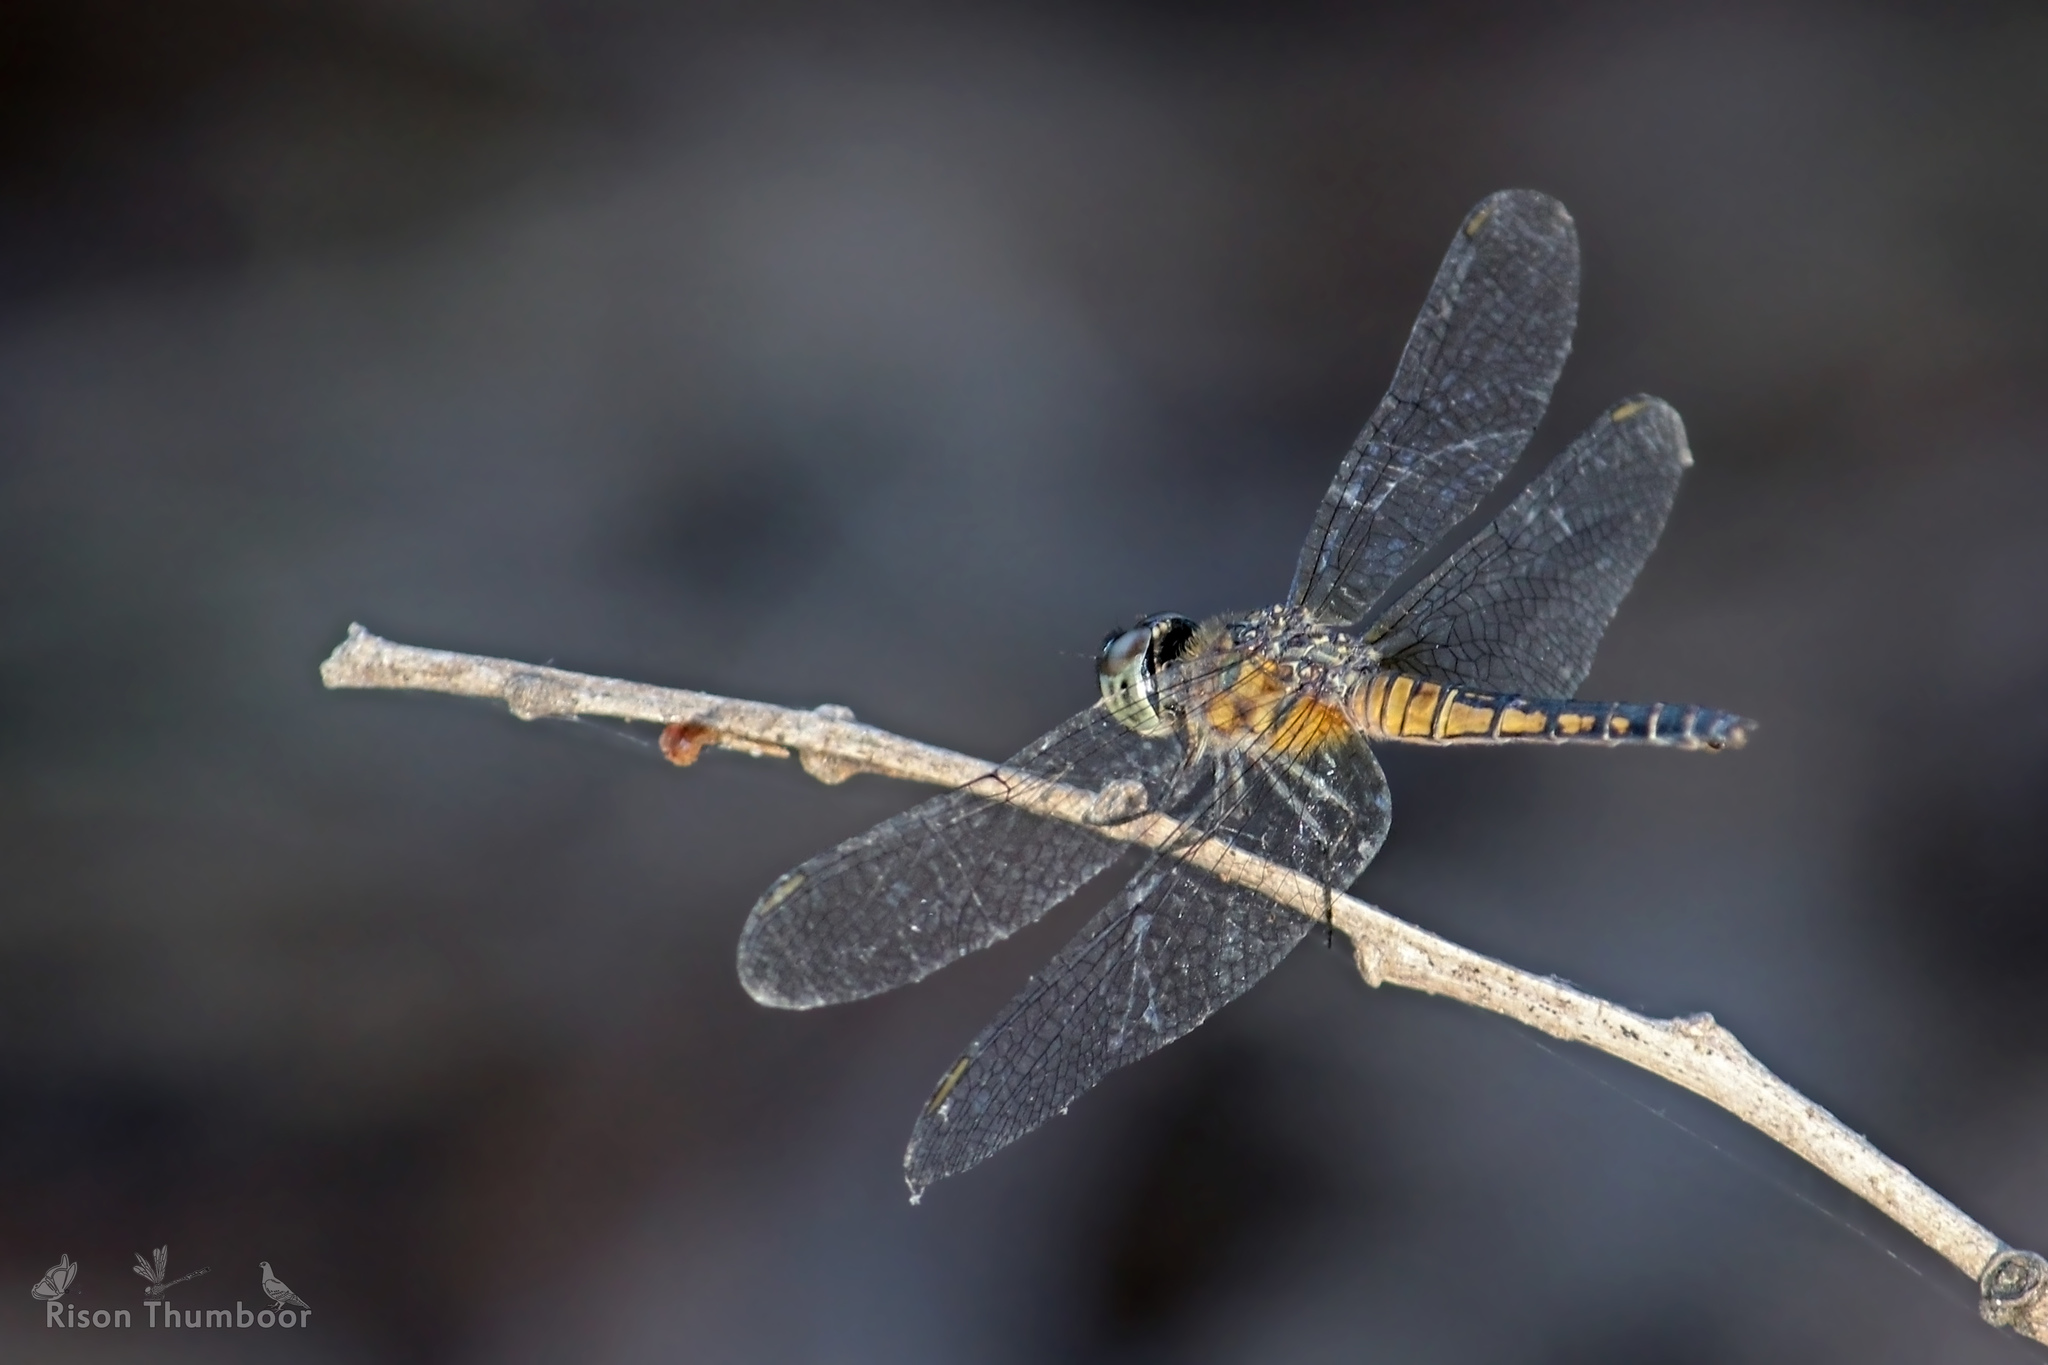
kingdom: Animalia
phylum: Arthropoda
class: Insecta
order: Odonata
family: Libellulidae
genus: Brachydiplax
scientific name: Brachydiplax sobrina
